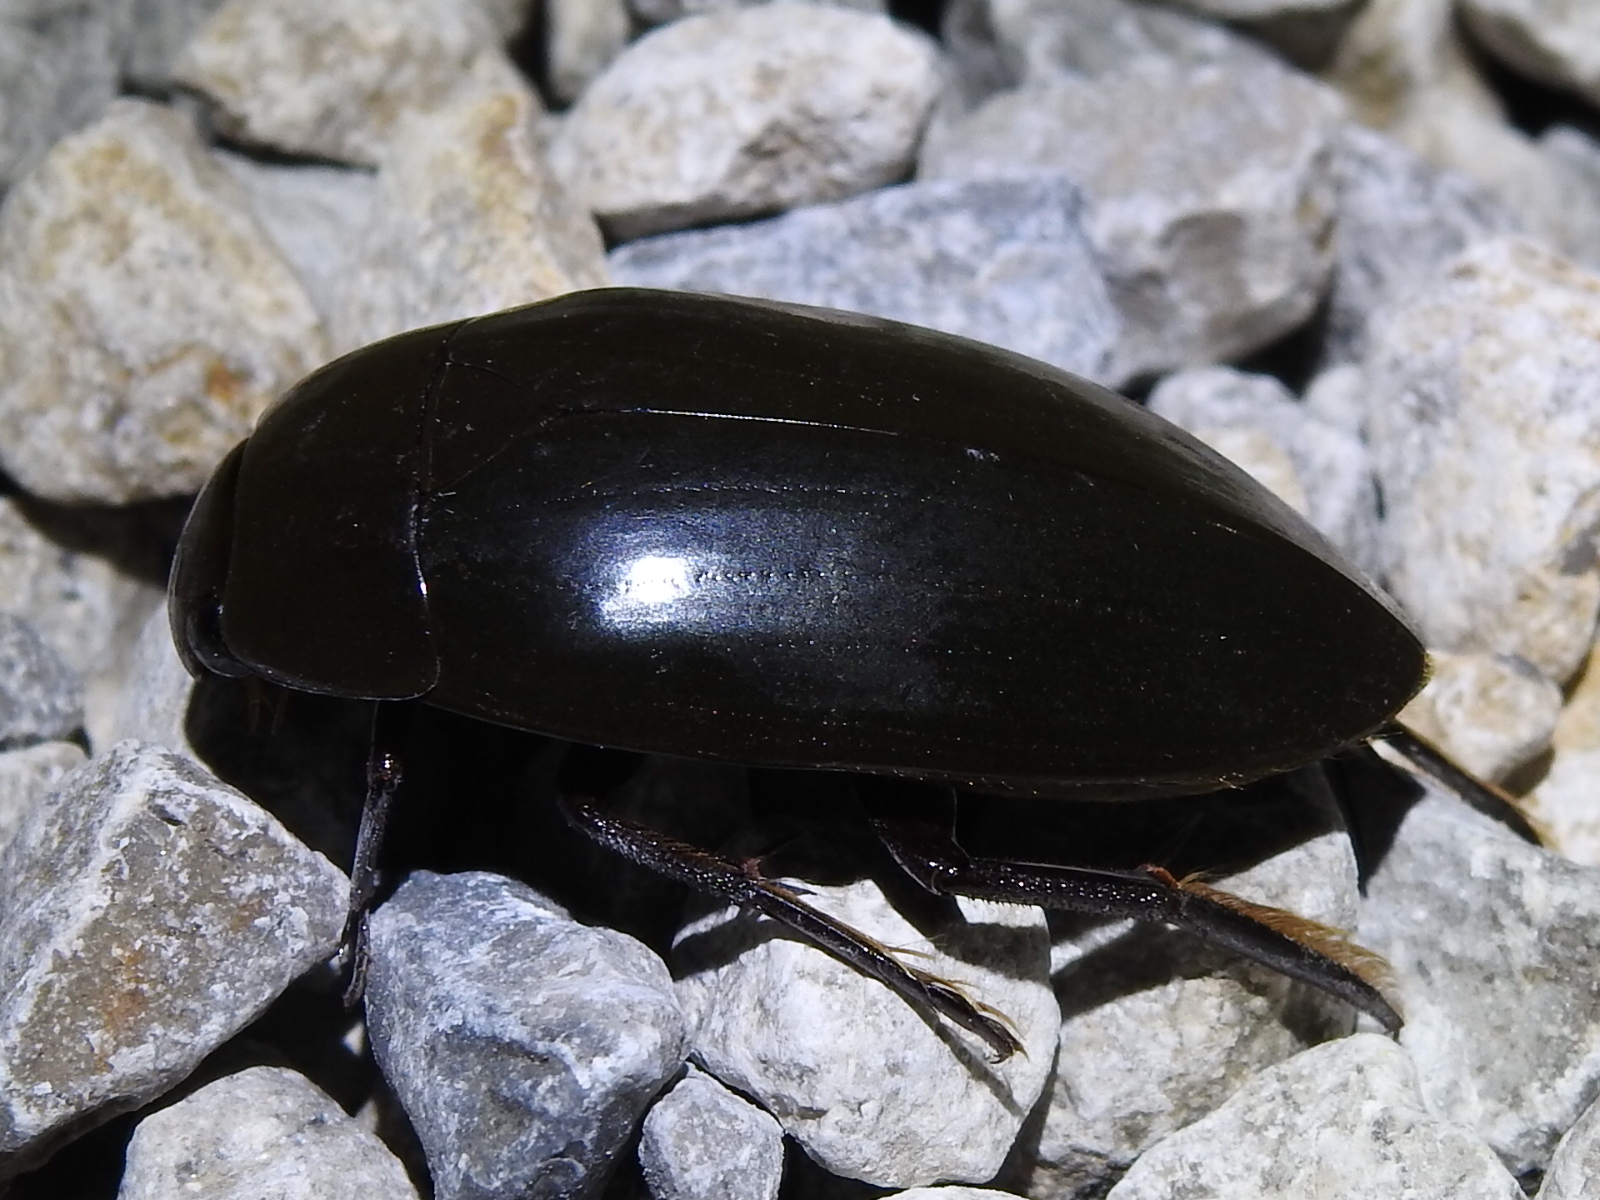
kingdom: Animalia
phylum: Arthropoda
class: Insecta
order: Coleoptera
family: Hydrophilidae
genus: Hydrophilus
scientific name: Hydrophilus triangularis
